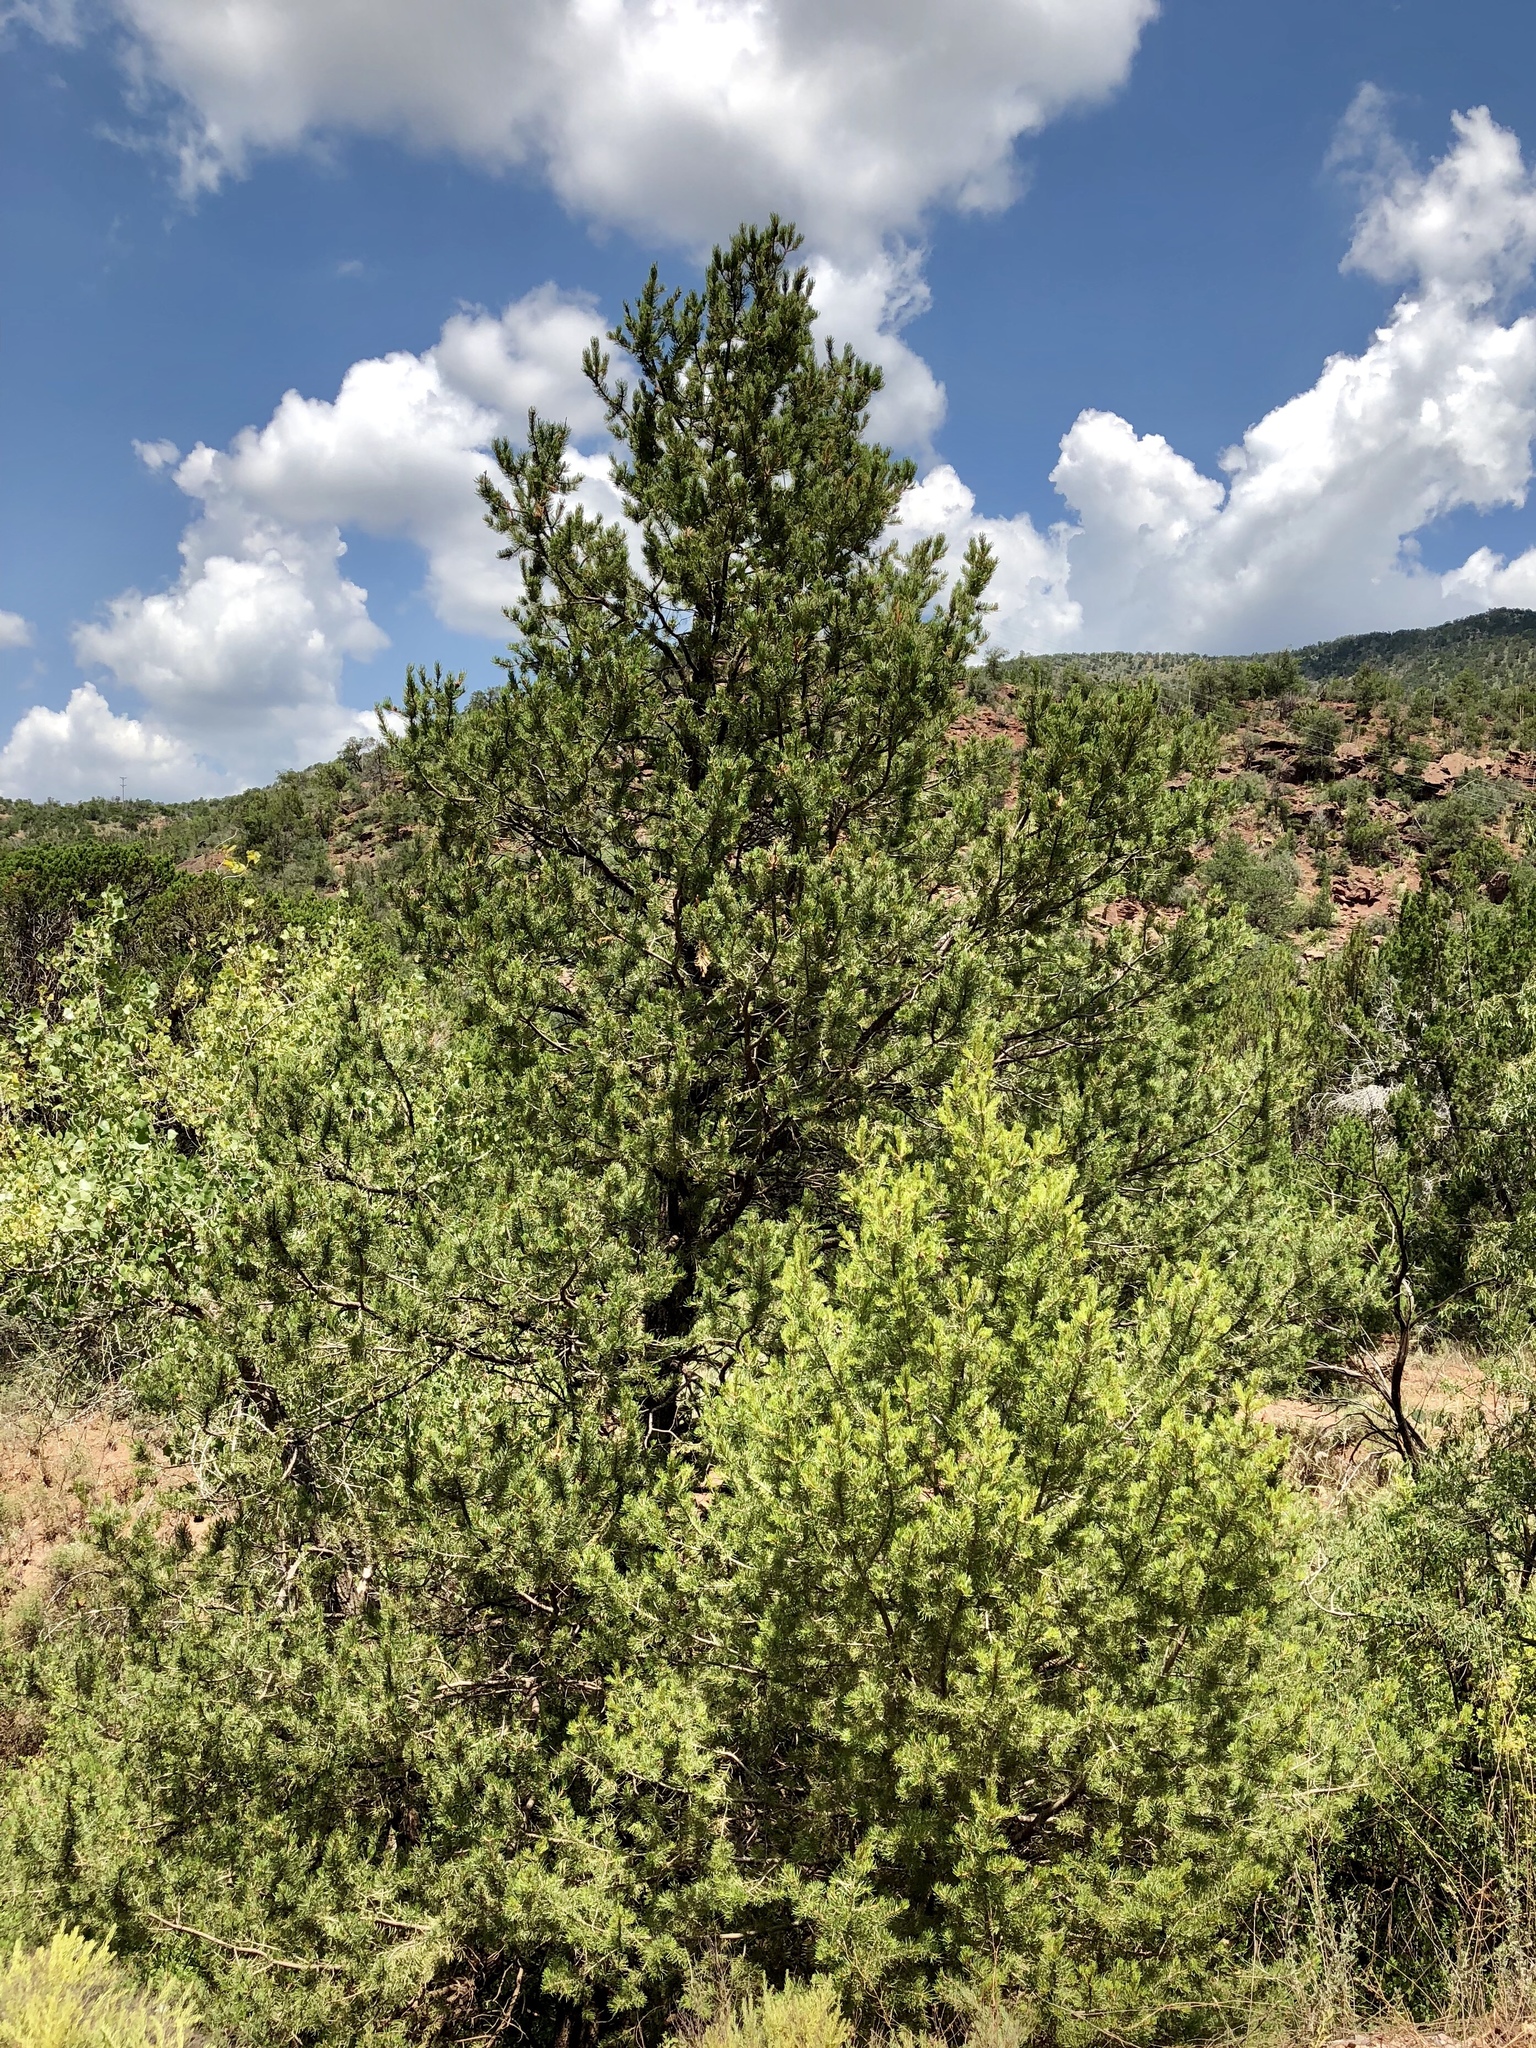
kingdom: Plantae
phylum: Tracheophyta
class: Pinopsida
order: Pinales
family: Pinaceae
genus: Pinus
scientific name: Pinus edulis
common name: Colorado pinyon
